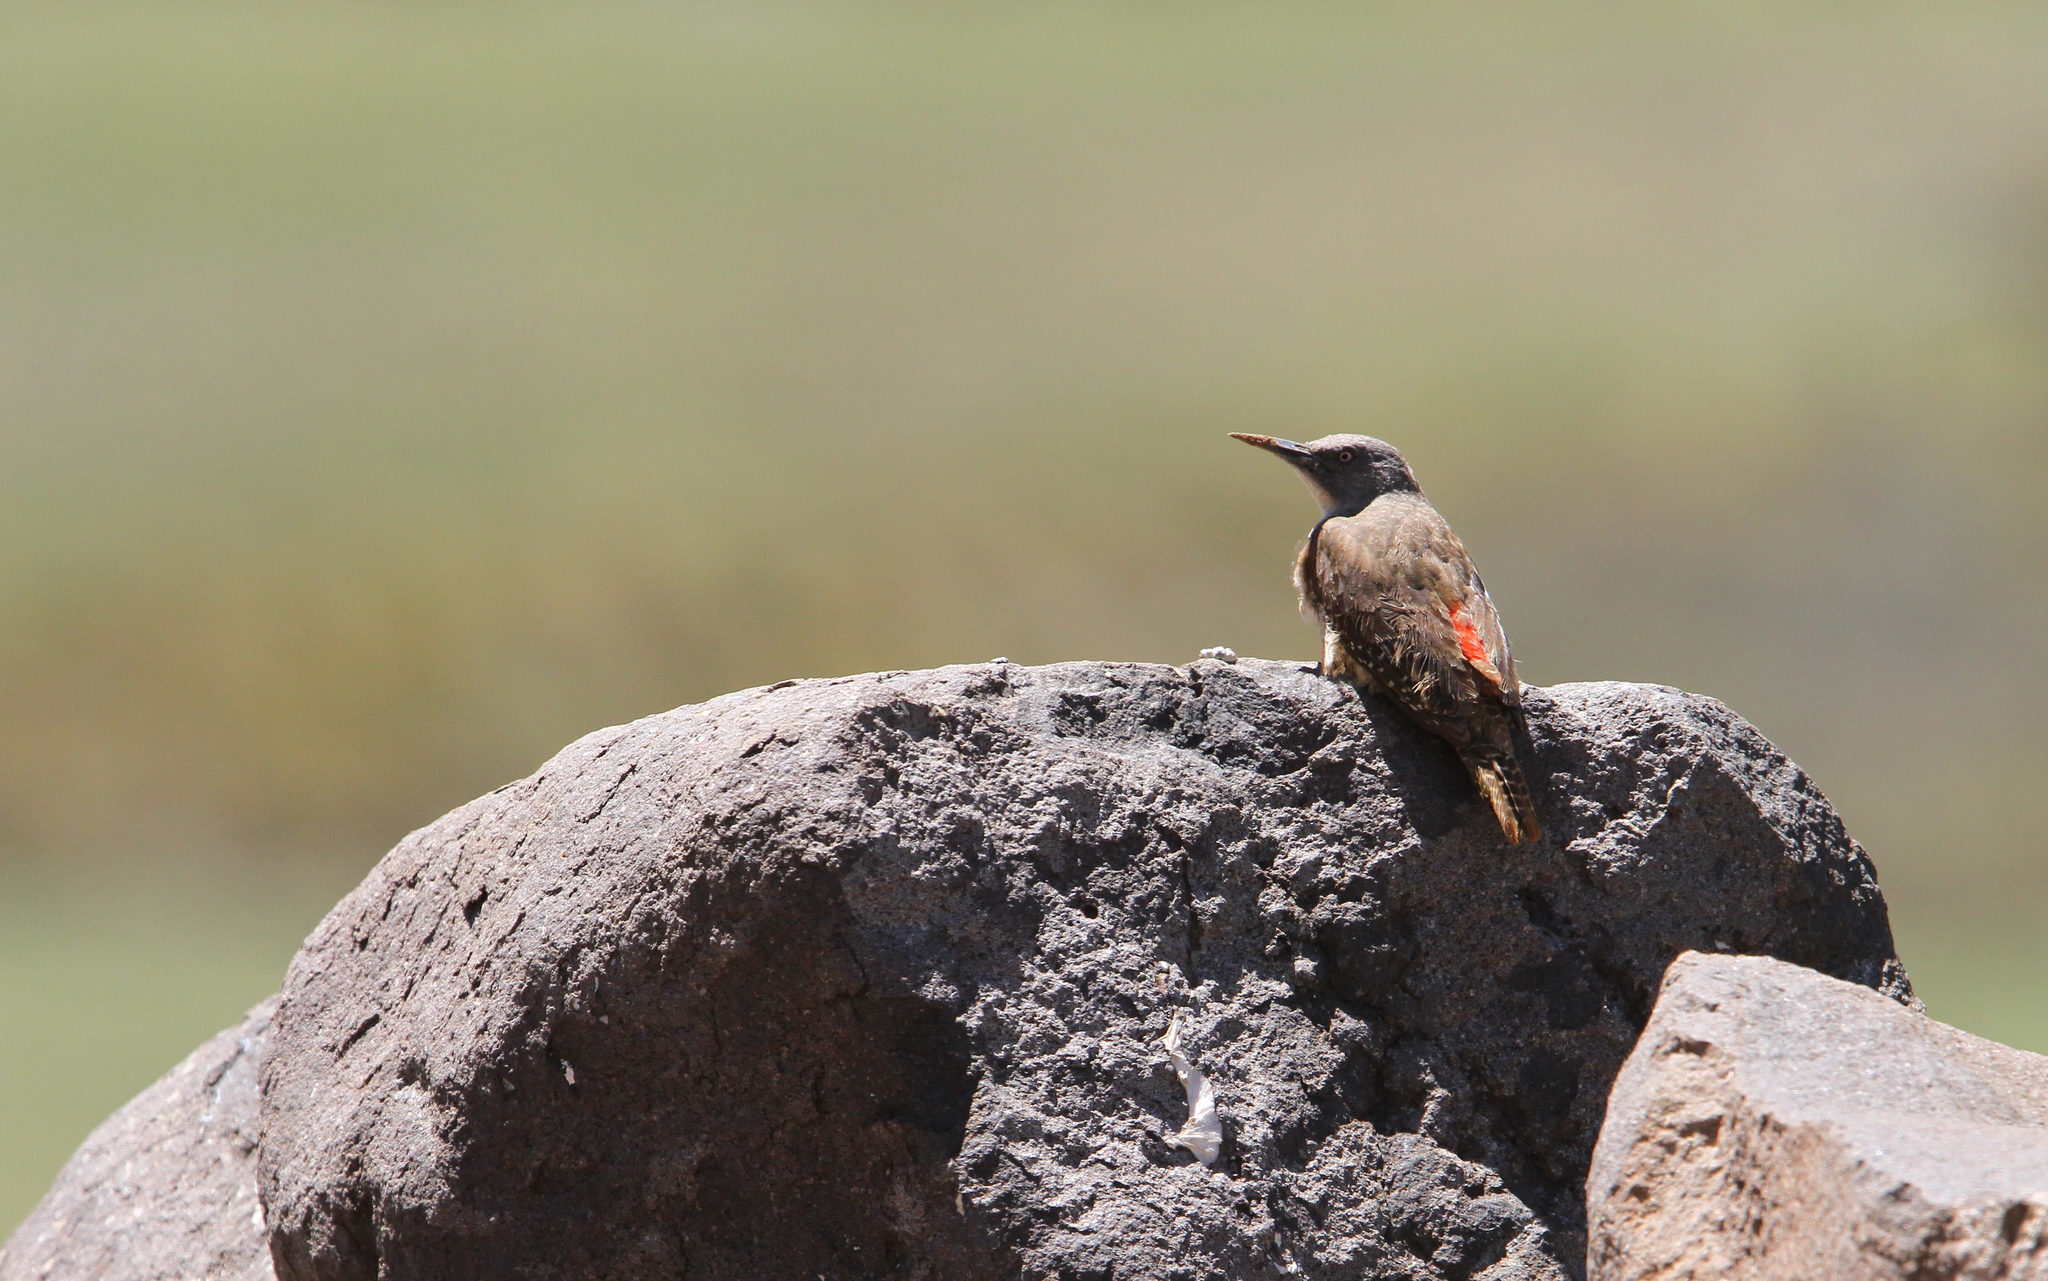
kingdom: Animalia
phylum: Chordata
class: Aves
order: Piciformes
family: Picidae
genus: Geocolaptes
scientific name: Geocolaptes olivaceus
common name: Ground woodpecker
